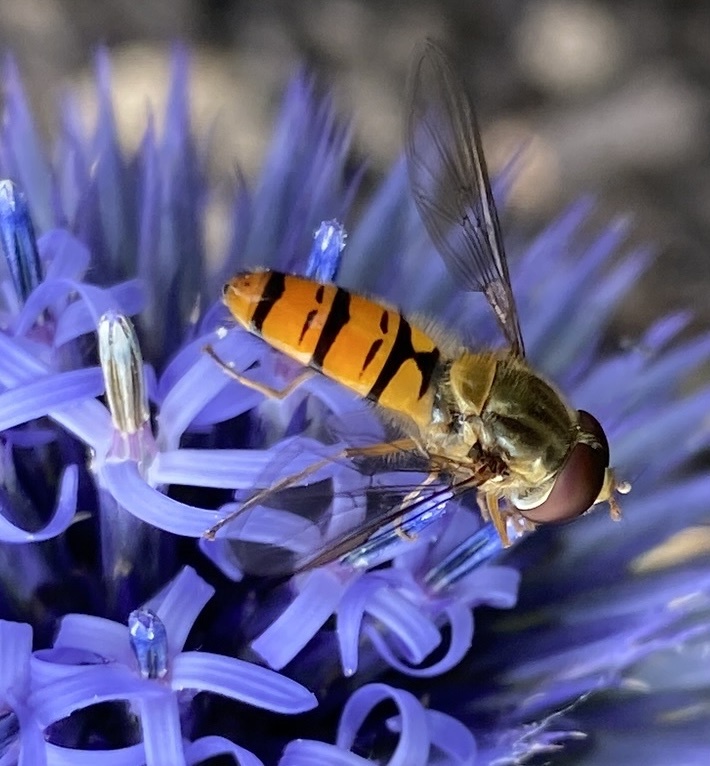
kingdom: Animalia
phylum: Arthropoda
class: Insecta
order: Diptera
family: Syrphidae
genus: Episyrphus
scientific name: Episyrphus balteatus
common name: Marmalade hoverfly
